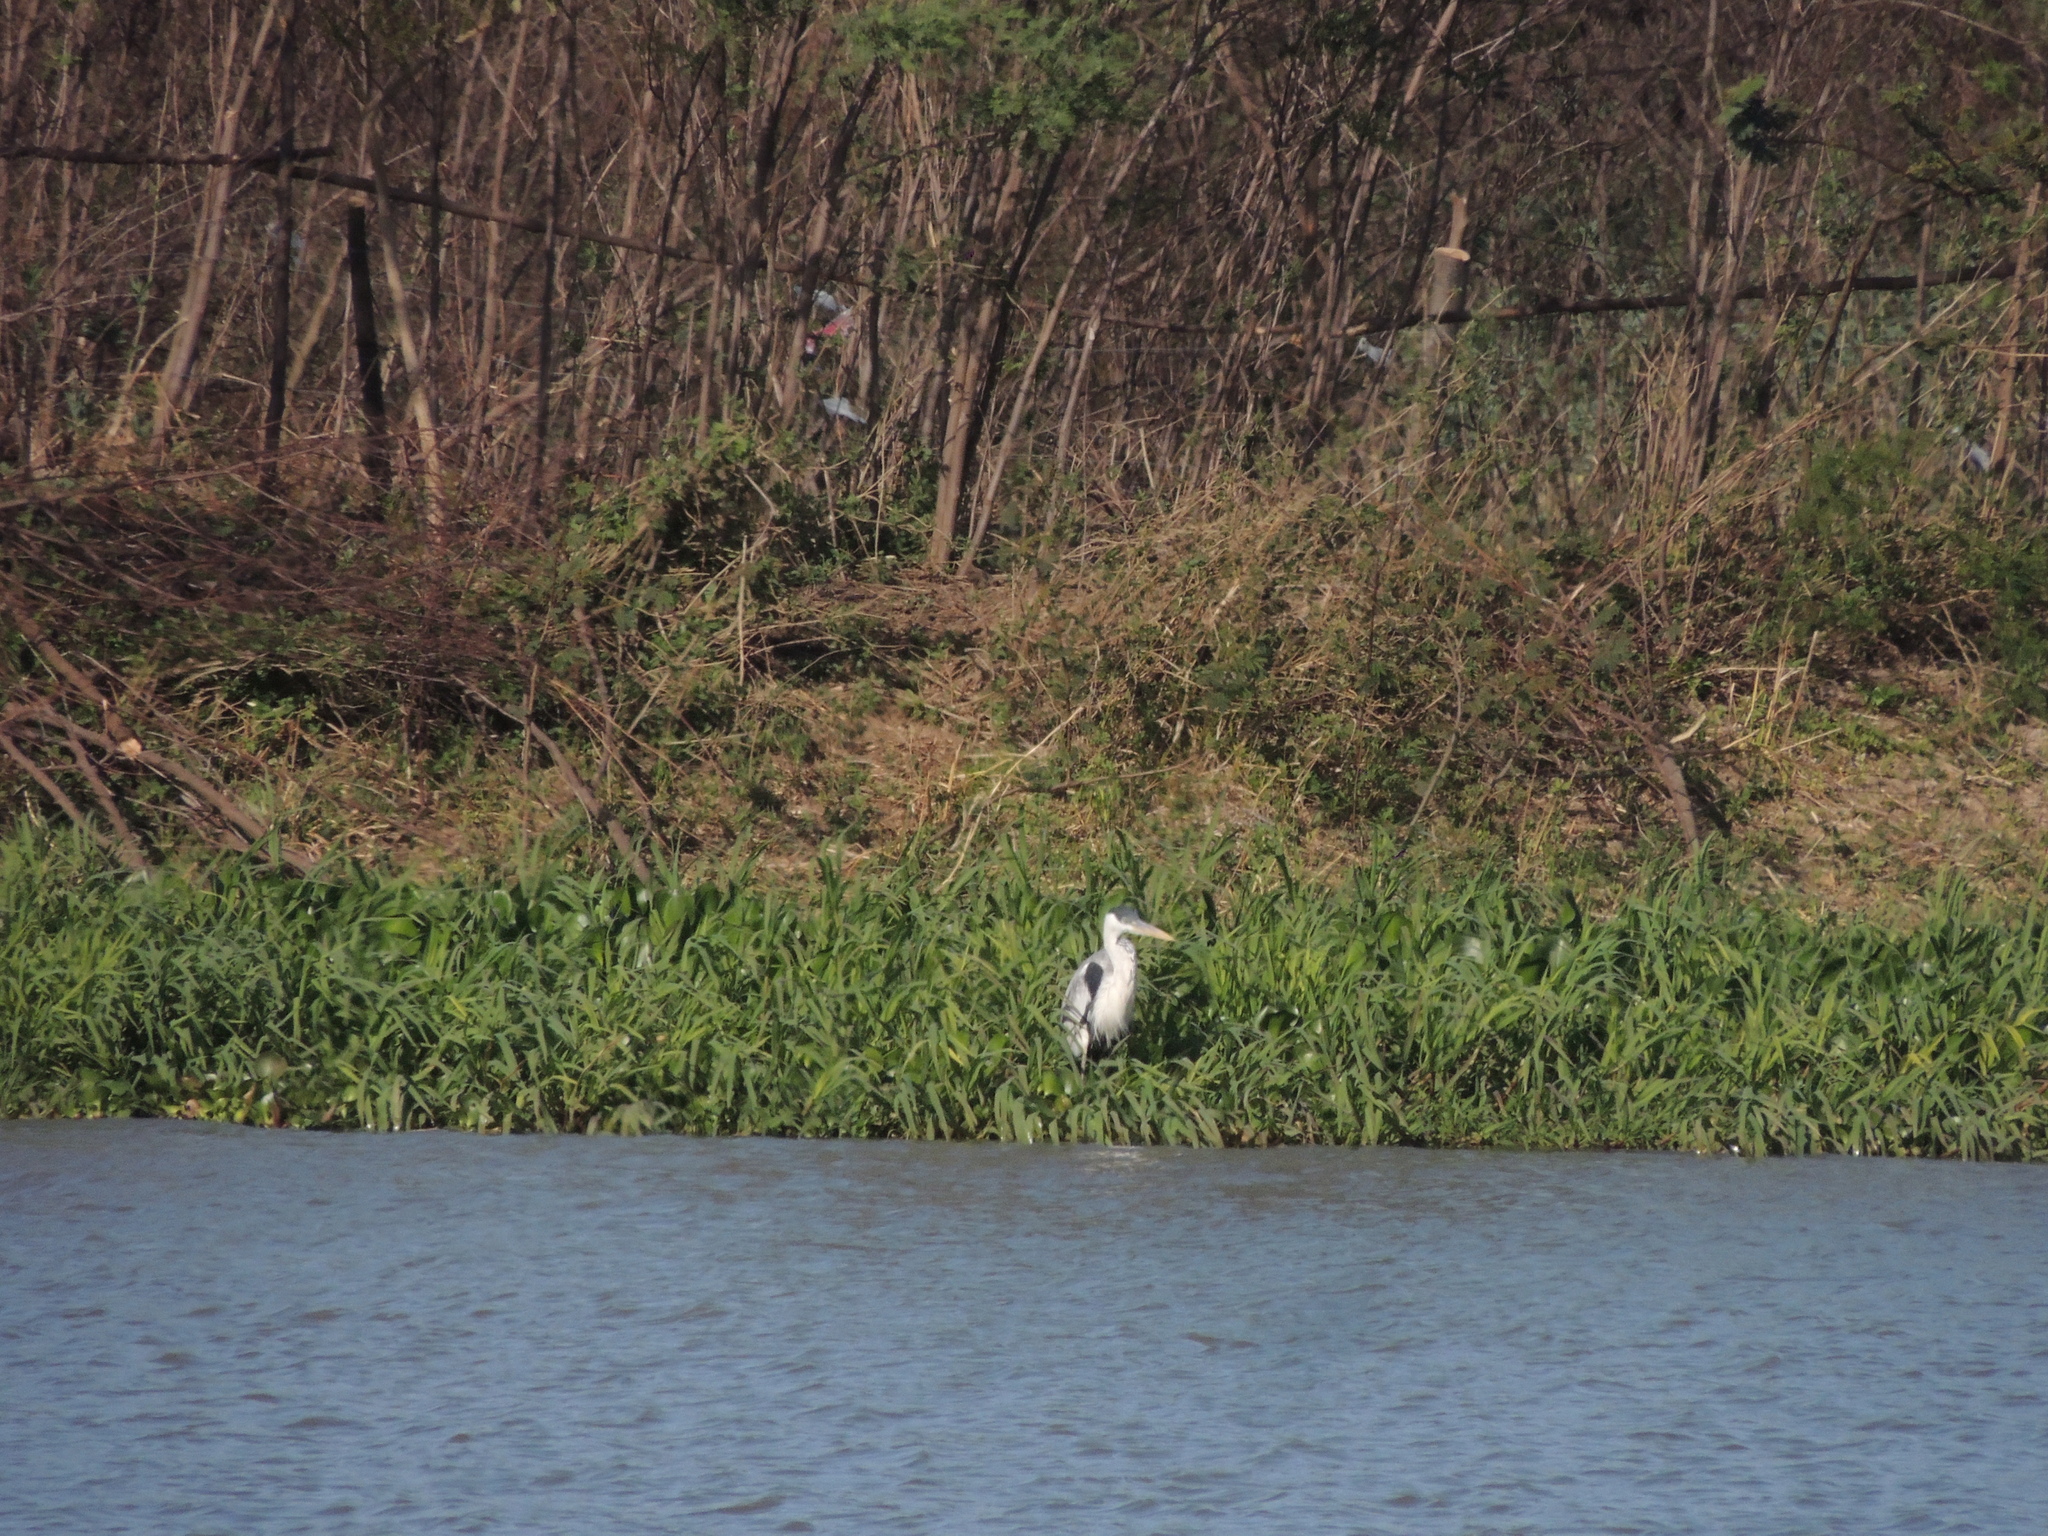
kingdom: Animalia
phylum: Chordata
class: Aves
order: Pelecaniformes
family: Ardeidae
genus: Ardea
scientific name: Ardea cocoi
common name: Cocoi heron
